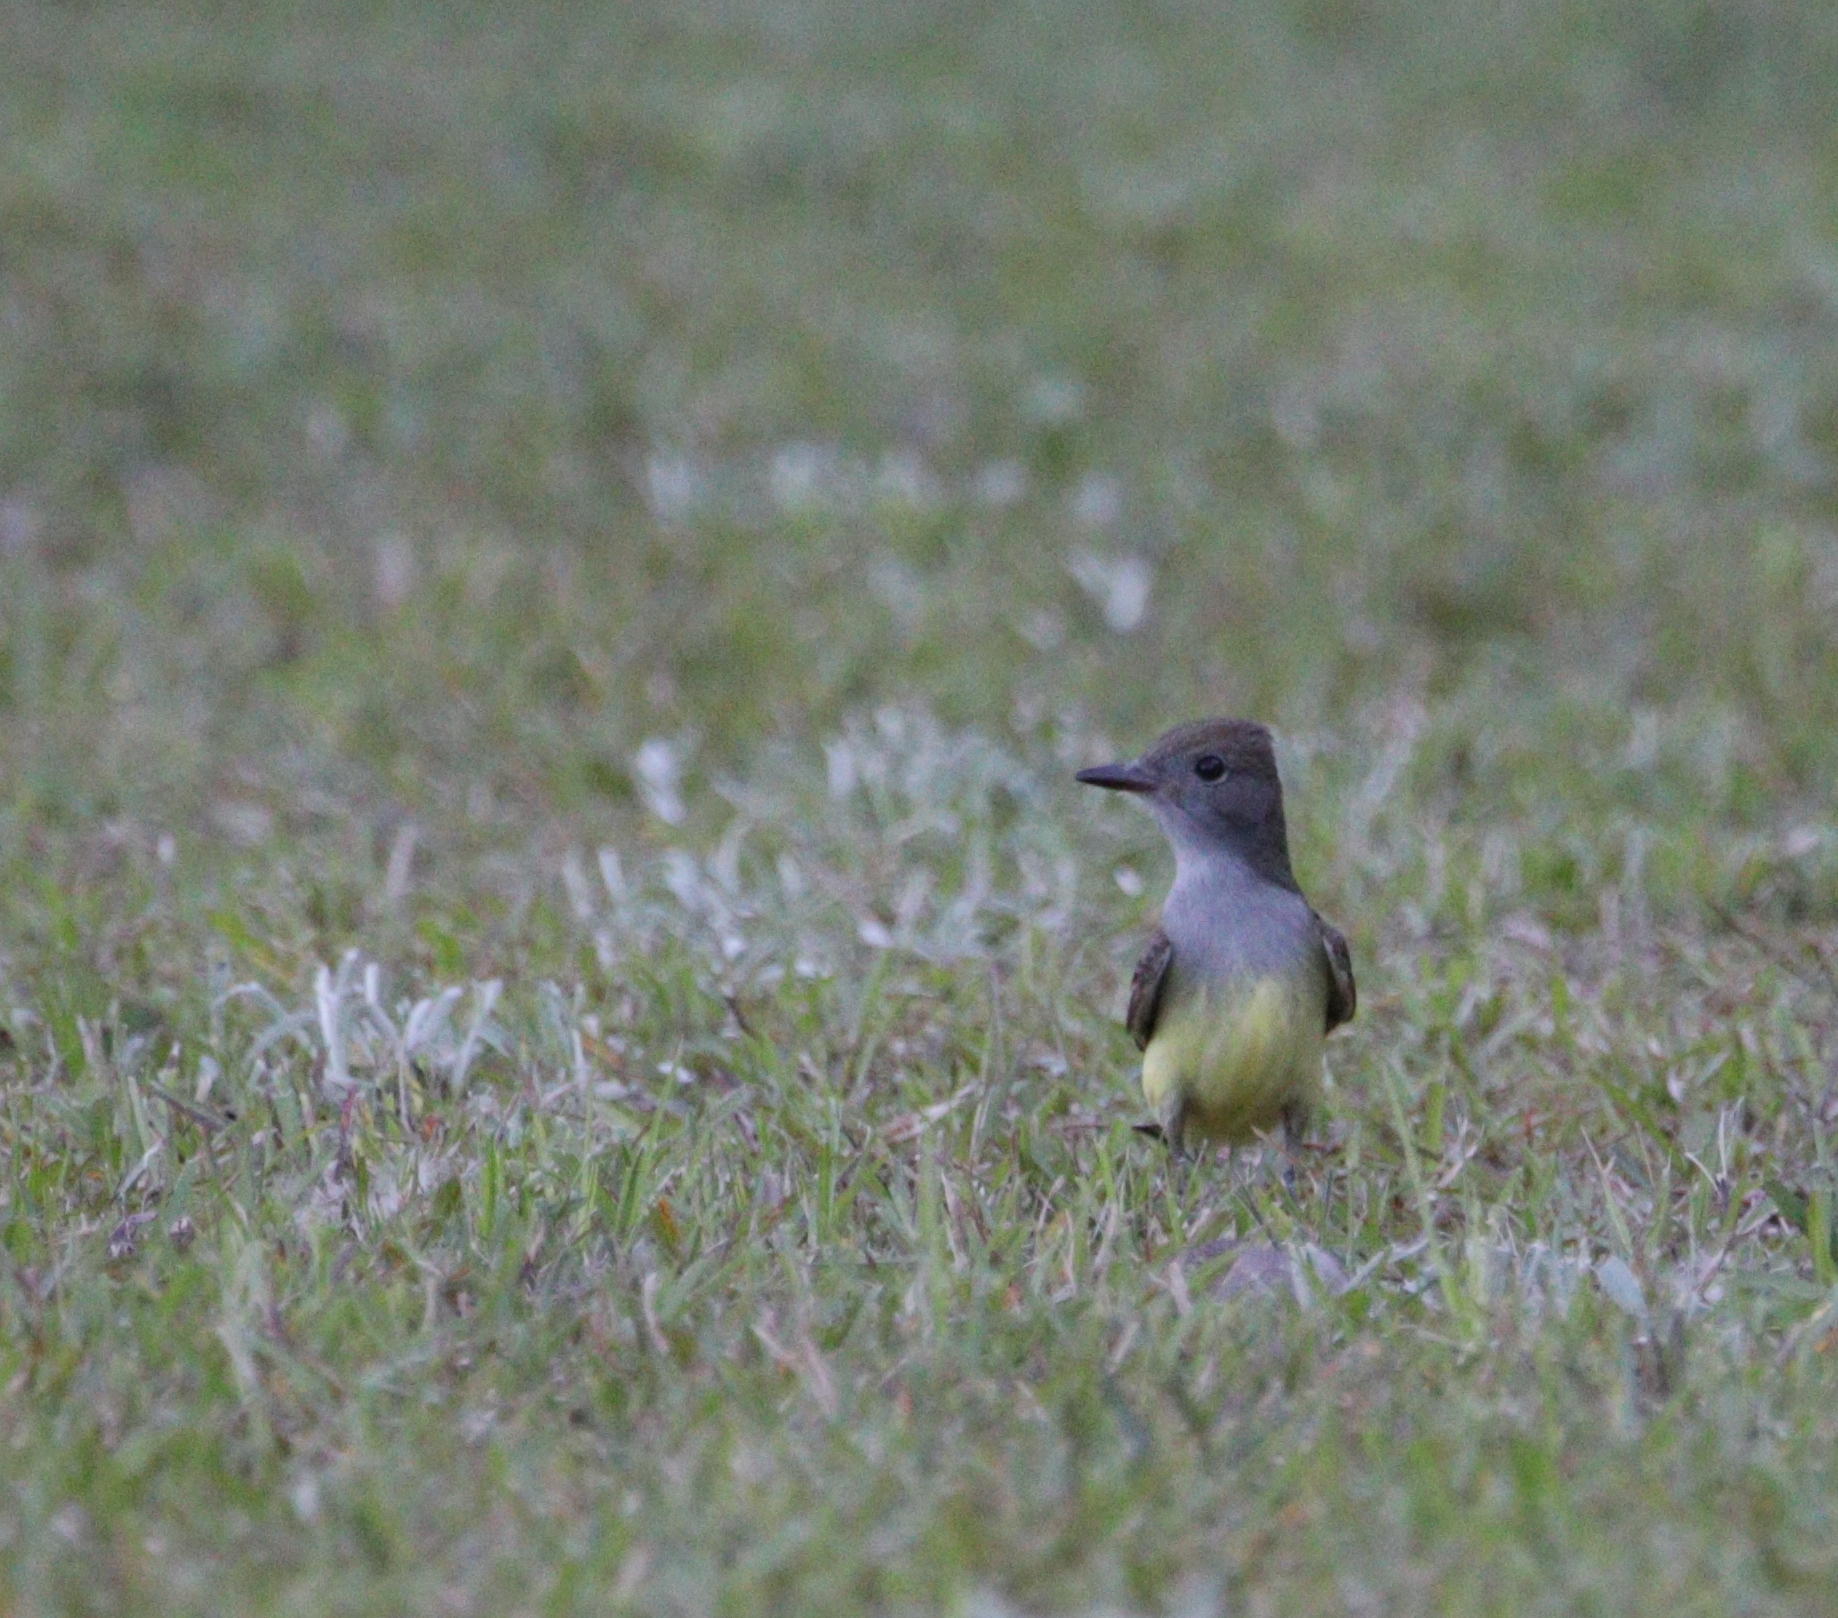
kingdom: Animalia
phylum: Chordata
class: Aves
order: Passeriformes
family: Tyrannidae
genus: Myiarchus
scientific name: Myiarchus crinitus
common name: Great crested flycatcher
